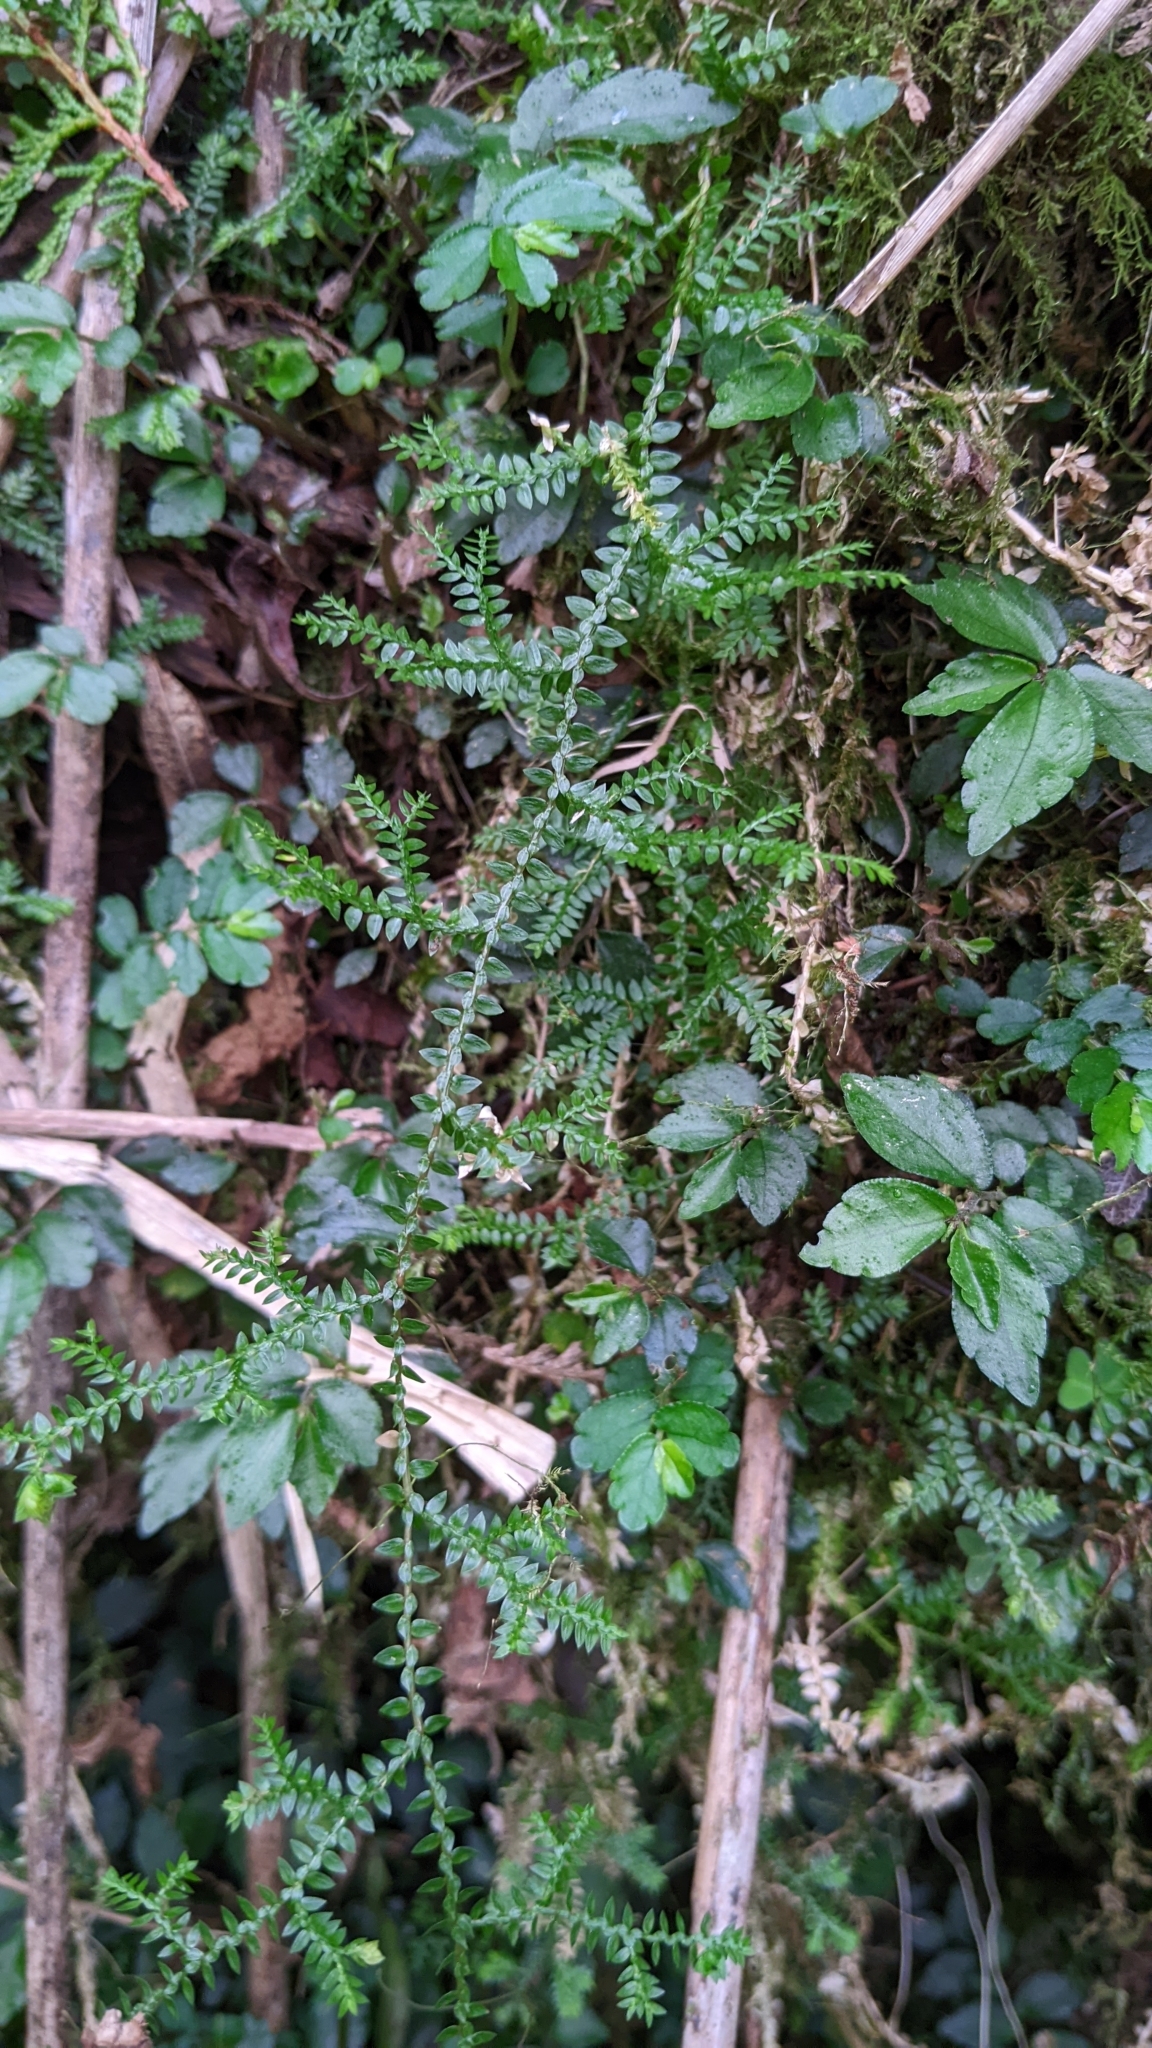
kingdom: Plantae
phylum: Tracheophyta
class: Lycopodiopsida
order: Selaginellales
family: Selaginellaceae
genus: Selaginella
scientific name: Selaginella remotifolia
